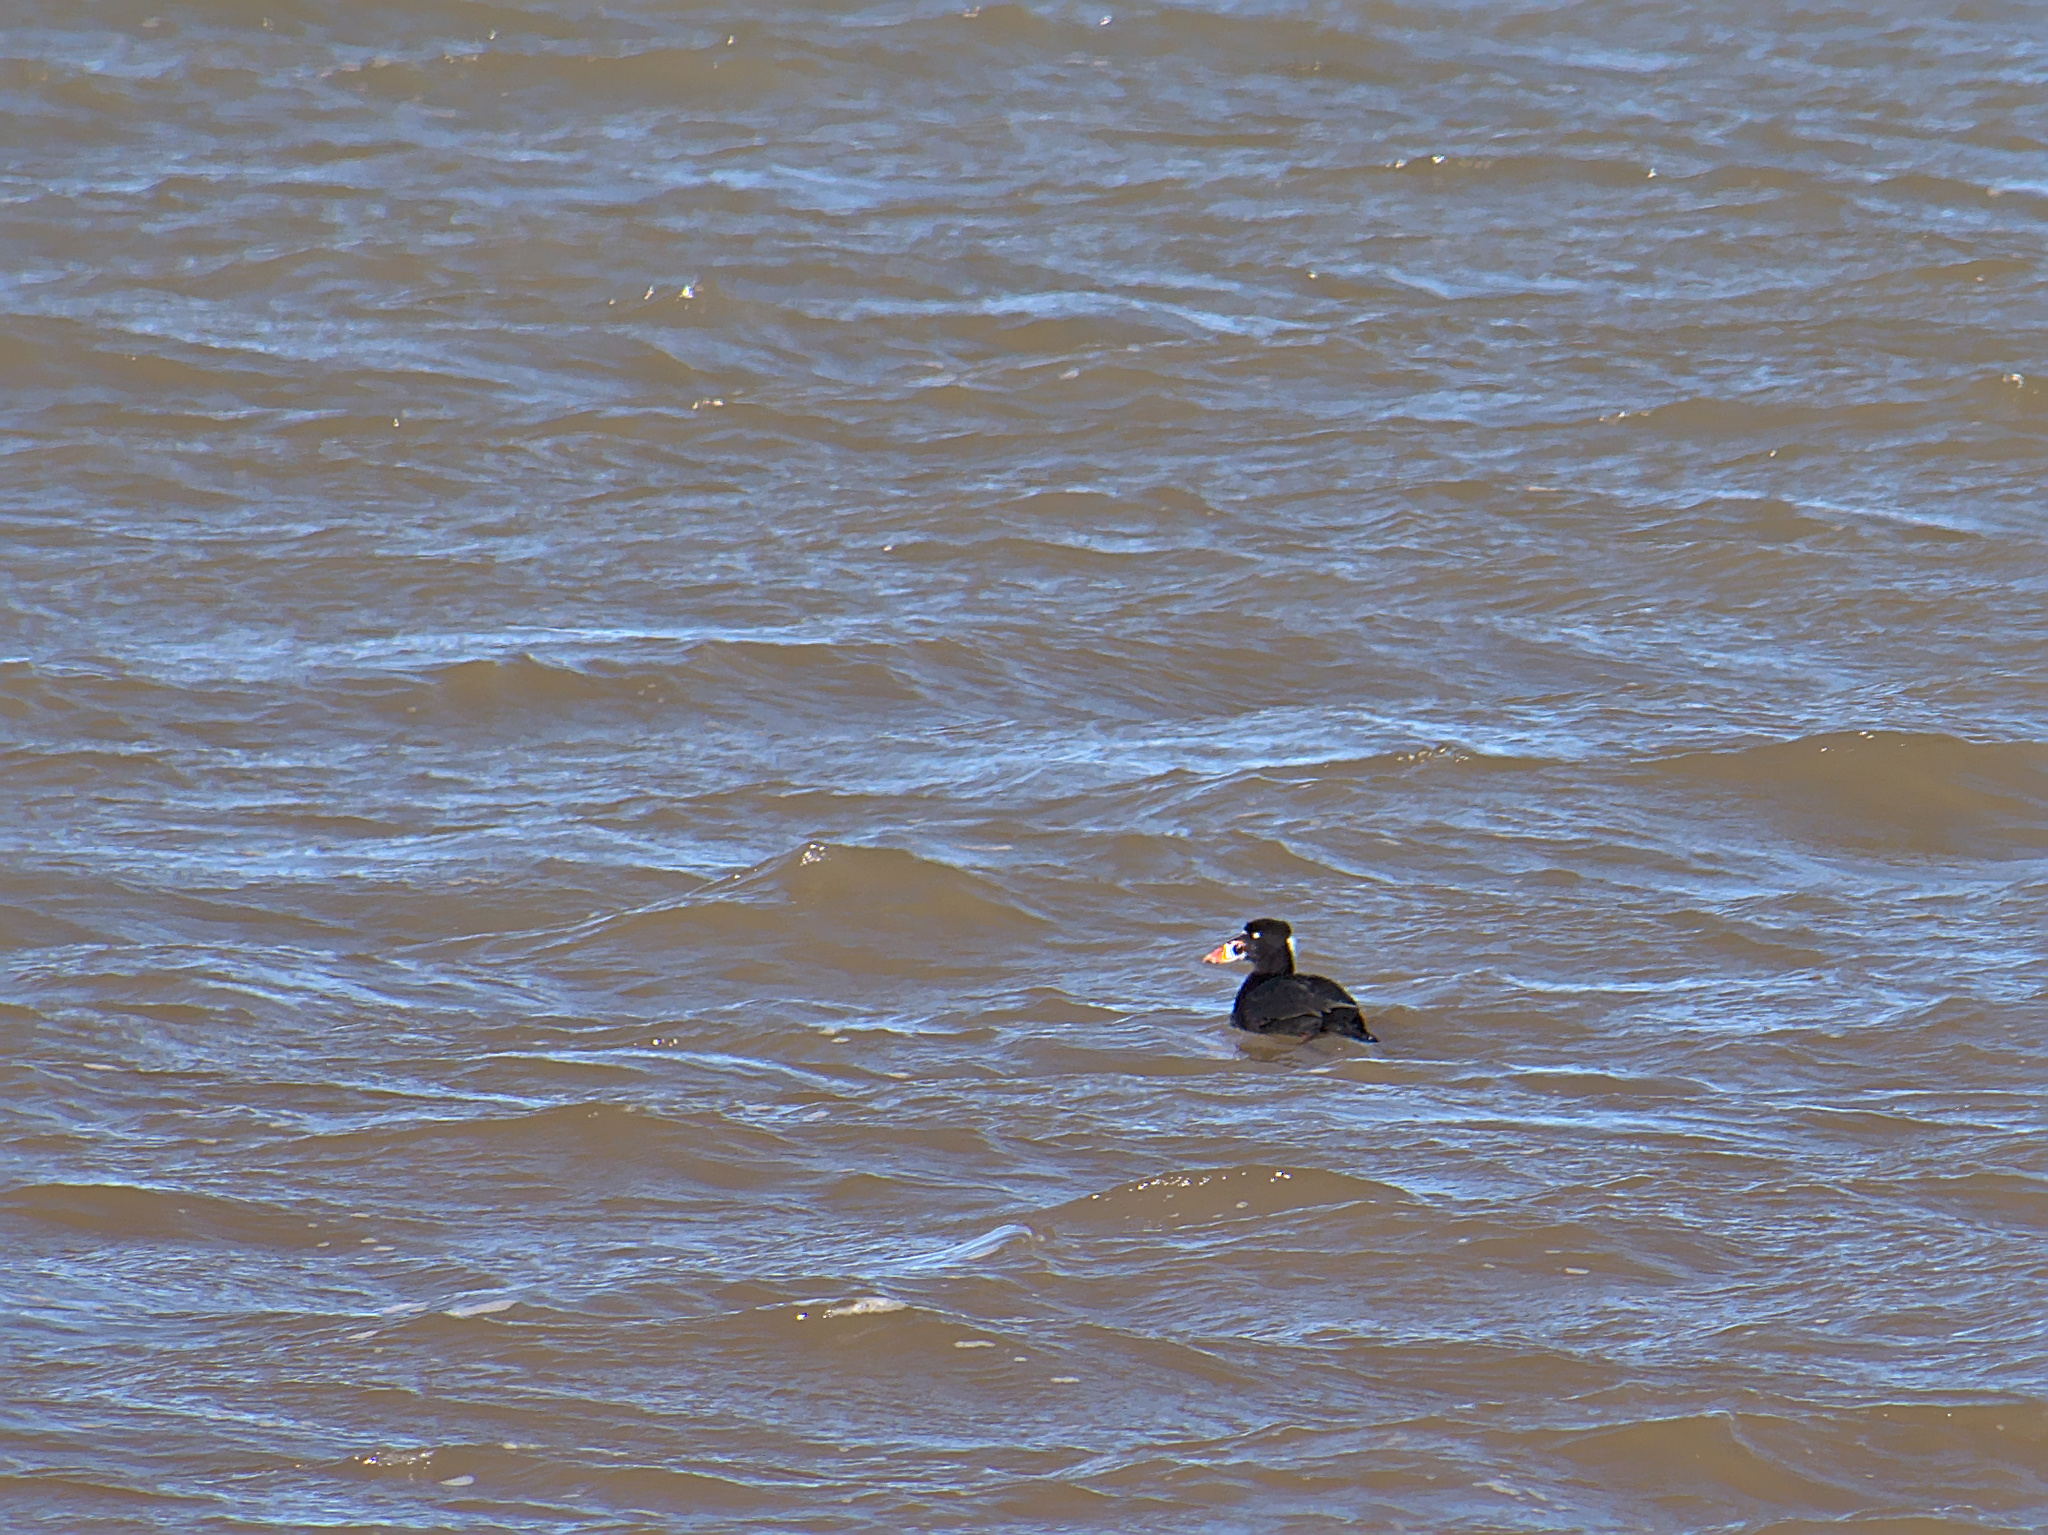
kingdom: Animalia
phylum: Chordata
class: Aves
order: Anseriformes
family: Anatidae
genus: Melanitta
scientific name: Melanitta perspicillata
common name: Surf scoter
